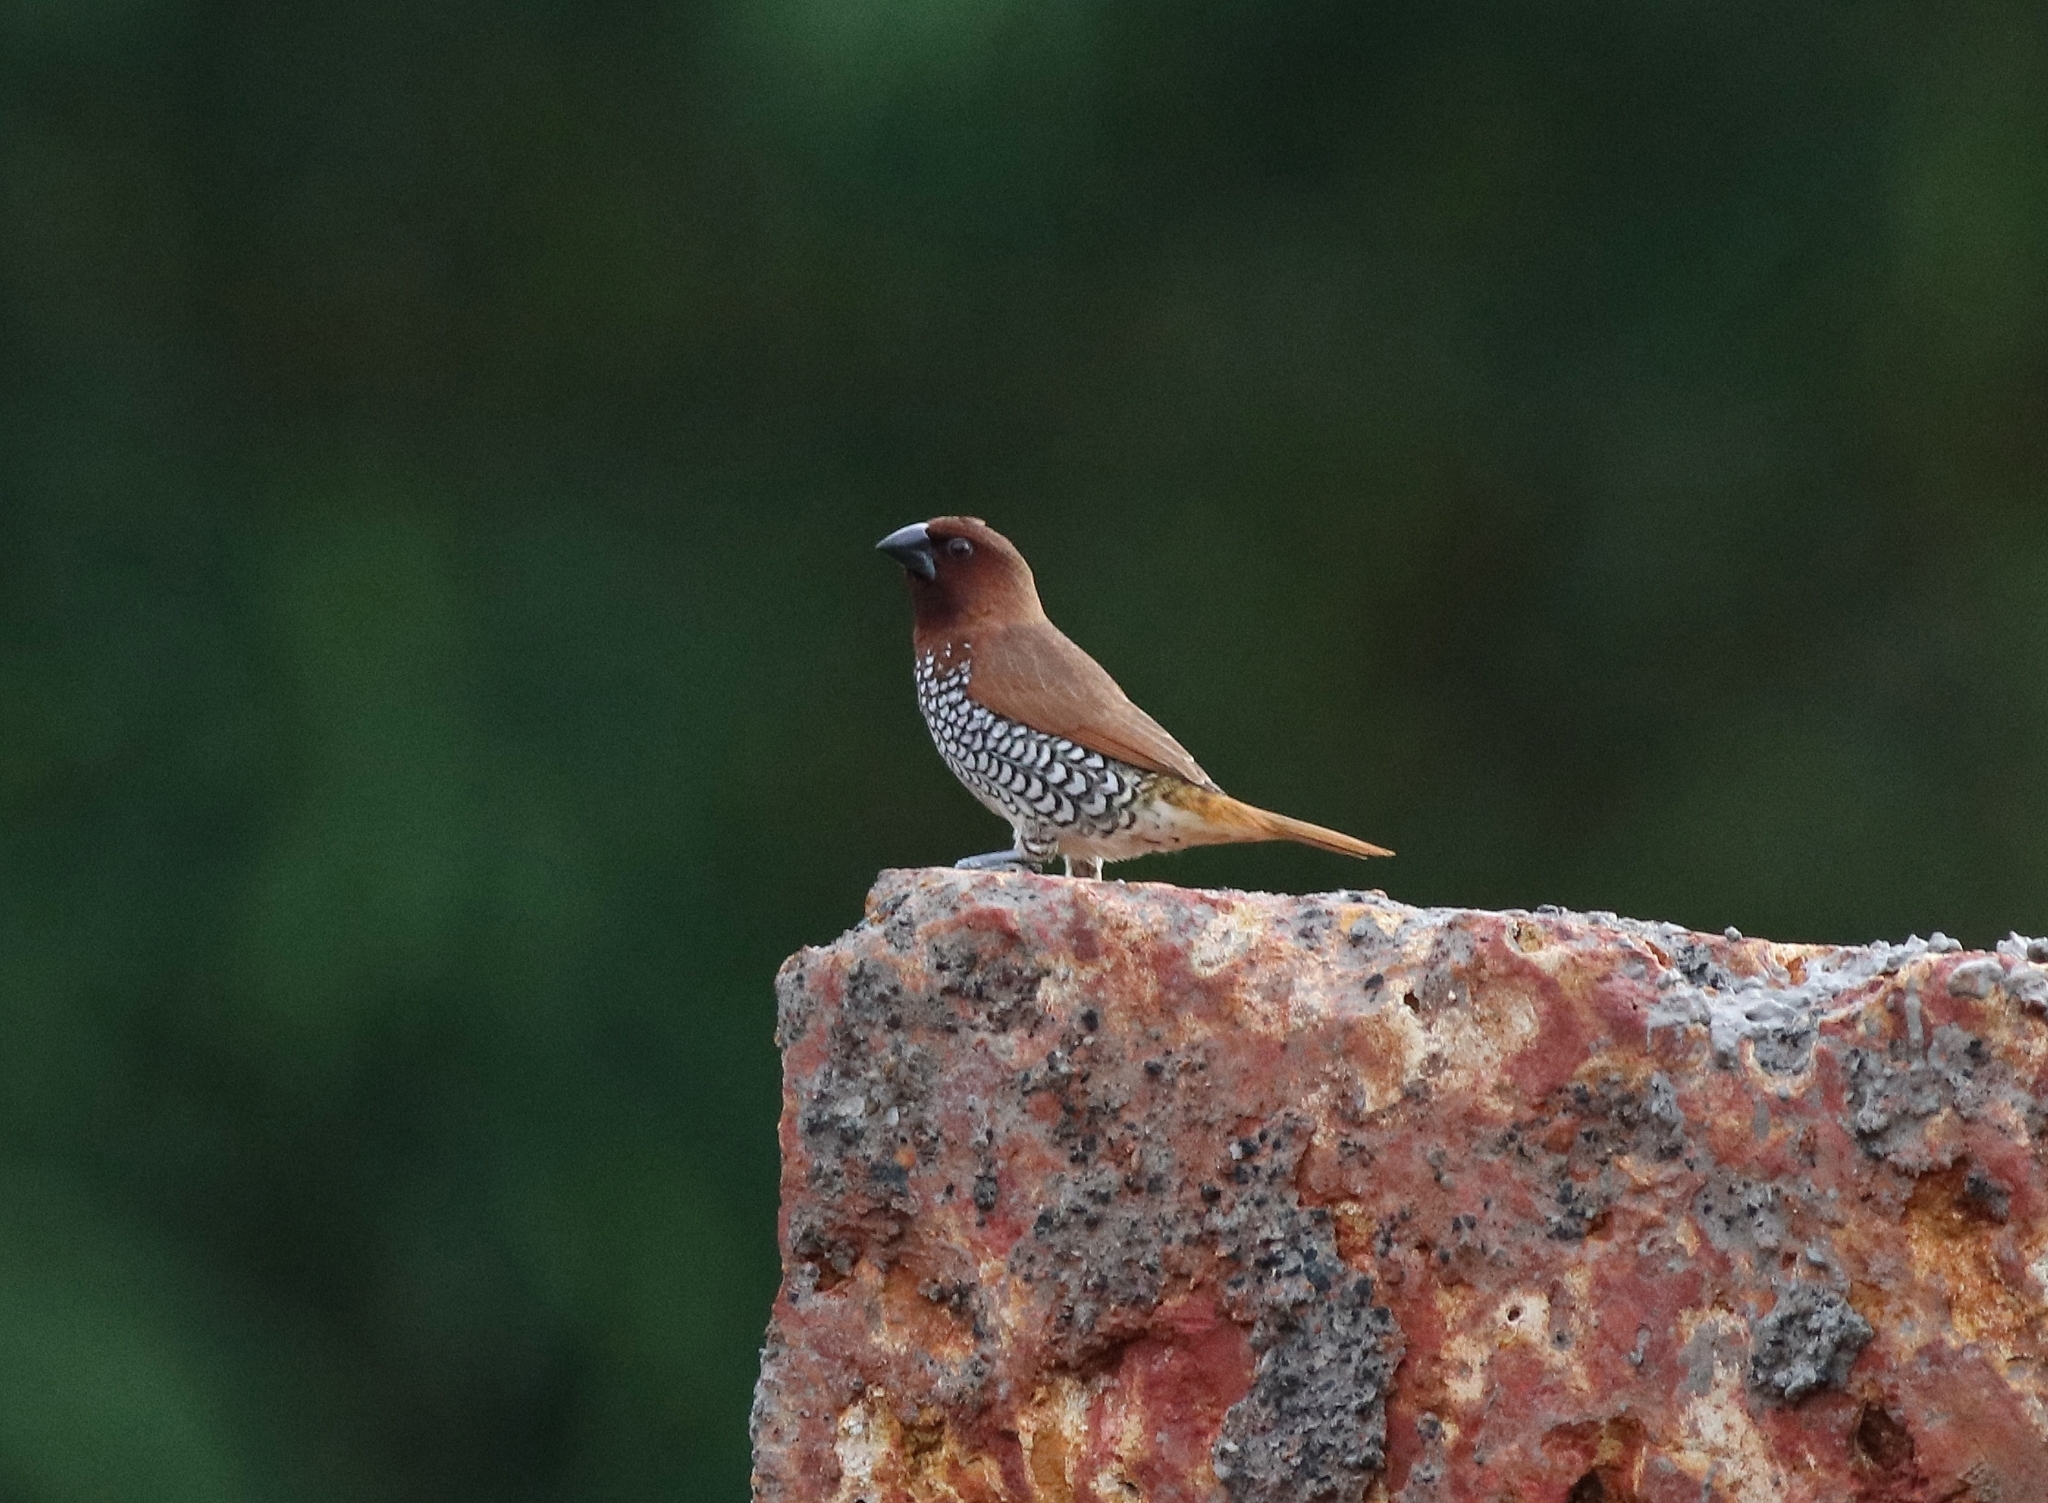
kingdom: Animalia
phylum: Chordata
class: Aves
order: Passeriformes
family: Estrildidae
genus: Lonchura
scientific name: Lonchura punctulata
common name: Scaly-breasted munia
